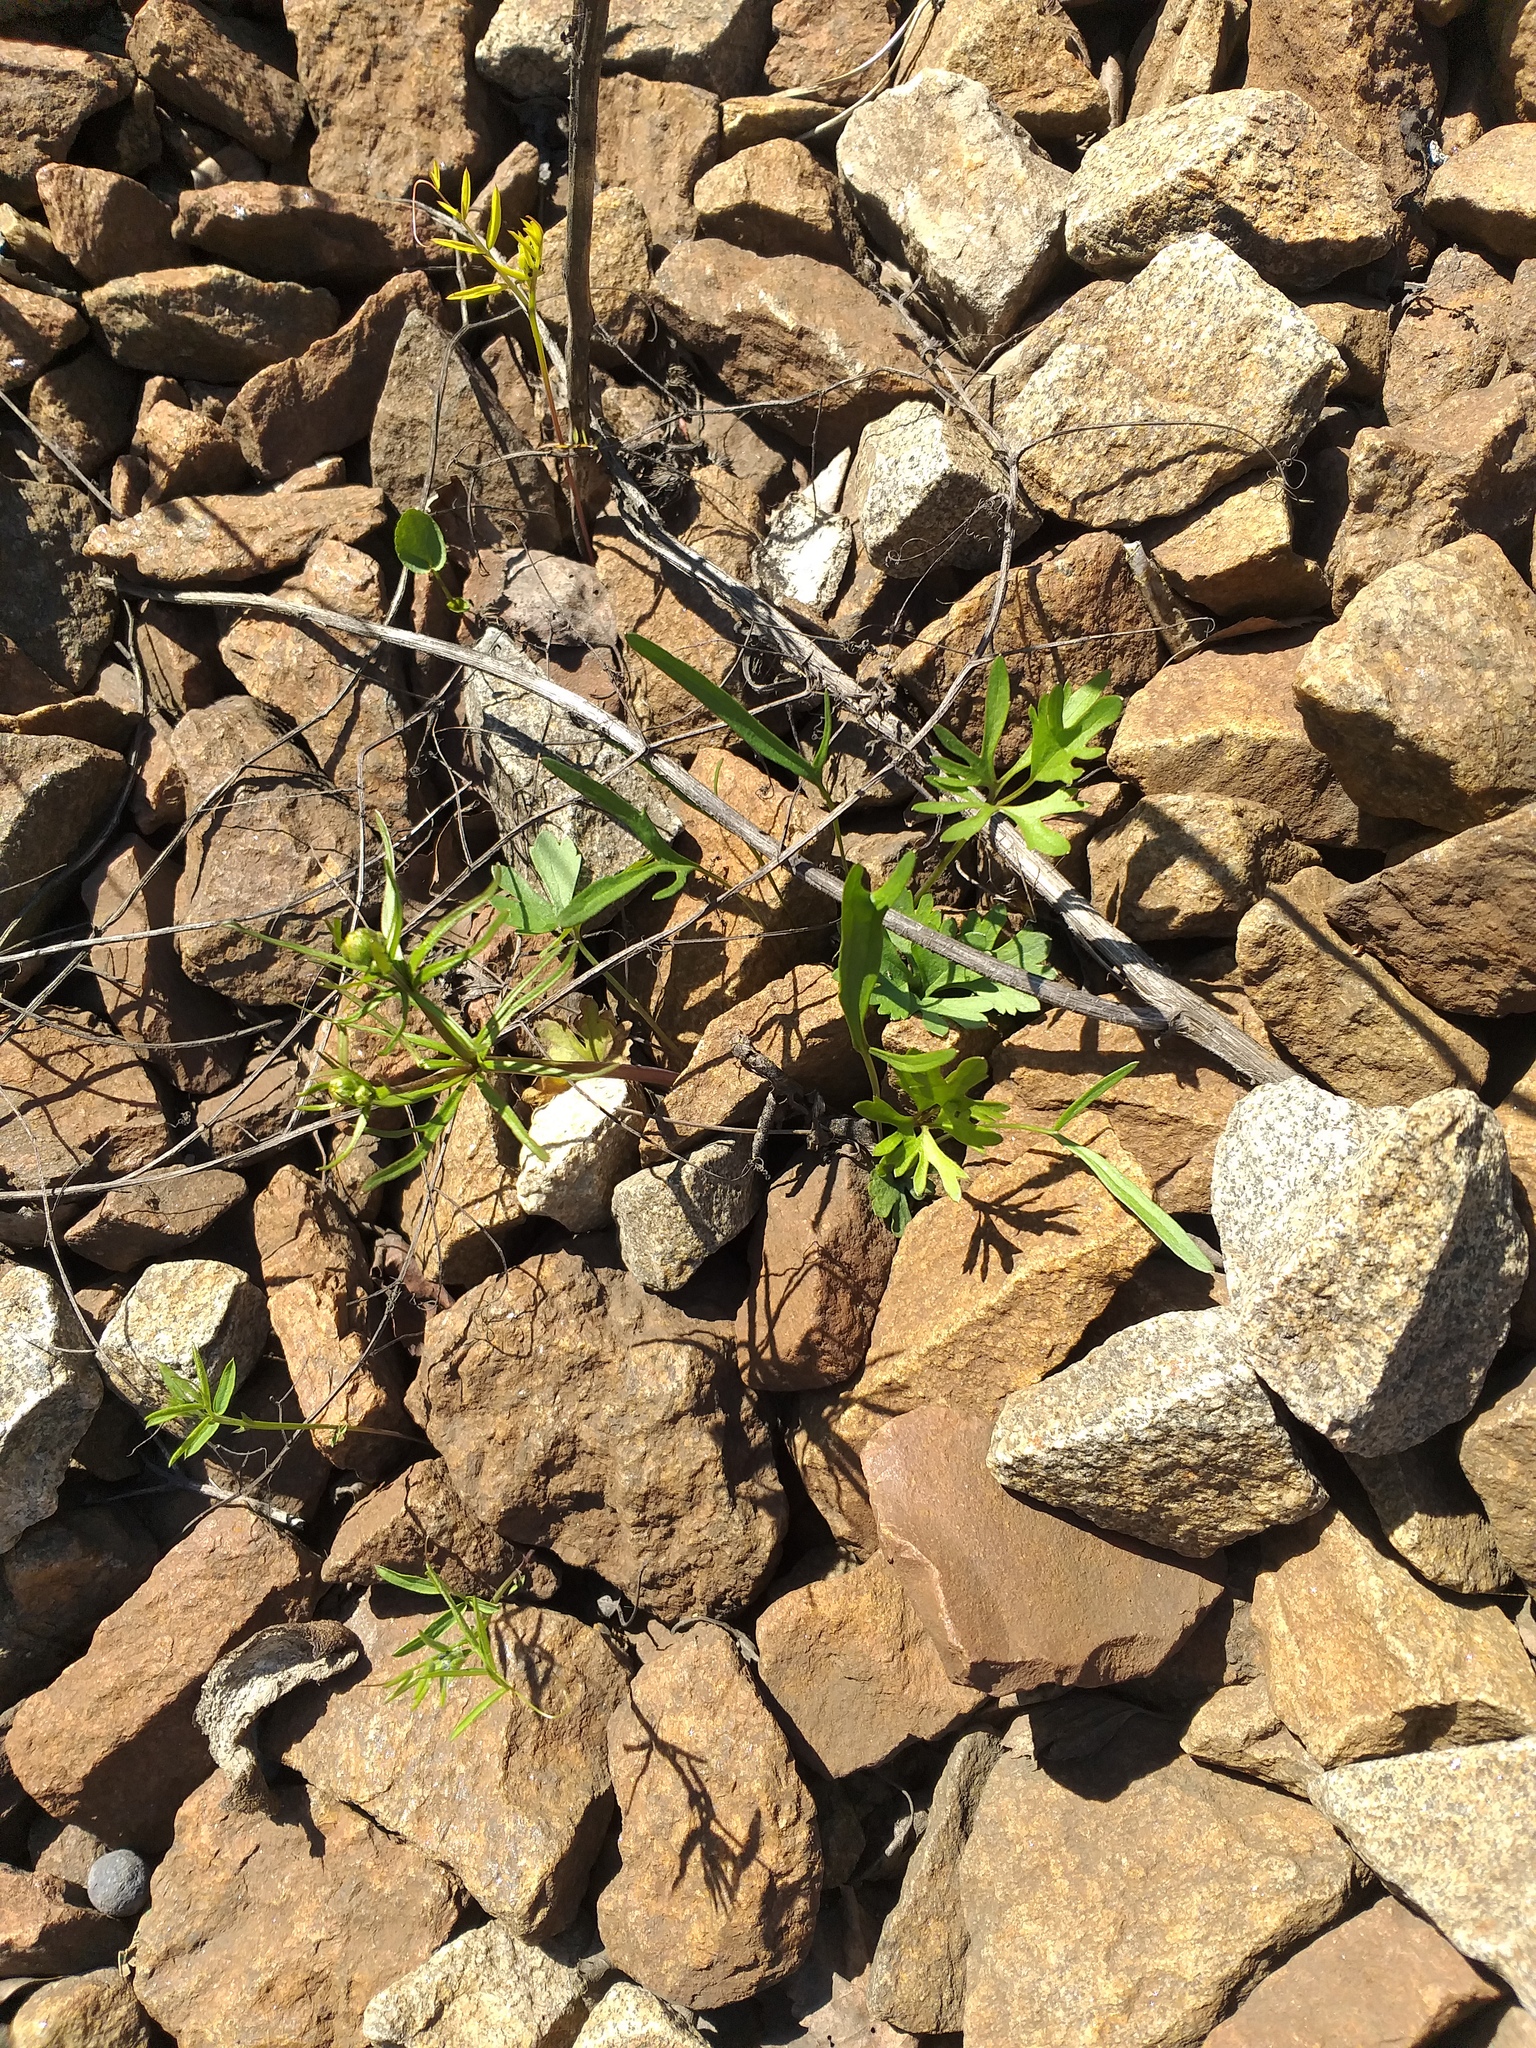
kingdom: Plantae
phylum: Tracheophyta
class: Magnoliopsida
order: Ranunculales
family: Ranunculaceae
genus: Ranunculus
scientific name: Ranunculus auricomus
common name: Goldilocks buttercup
